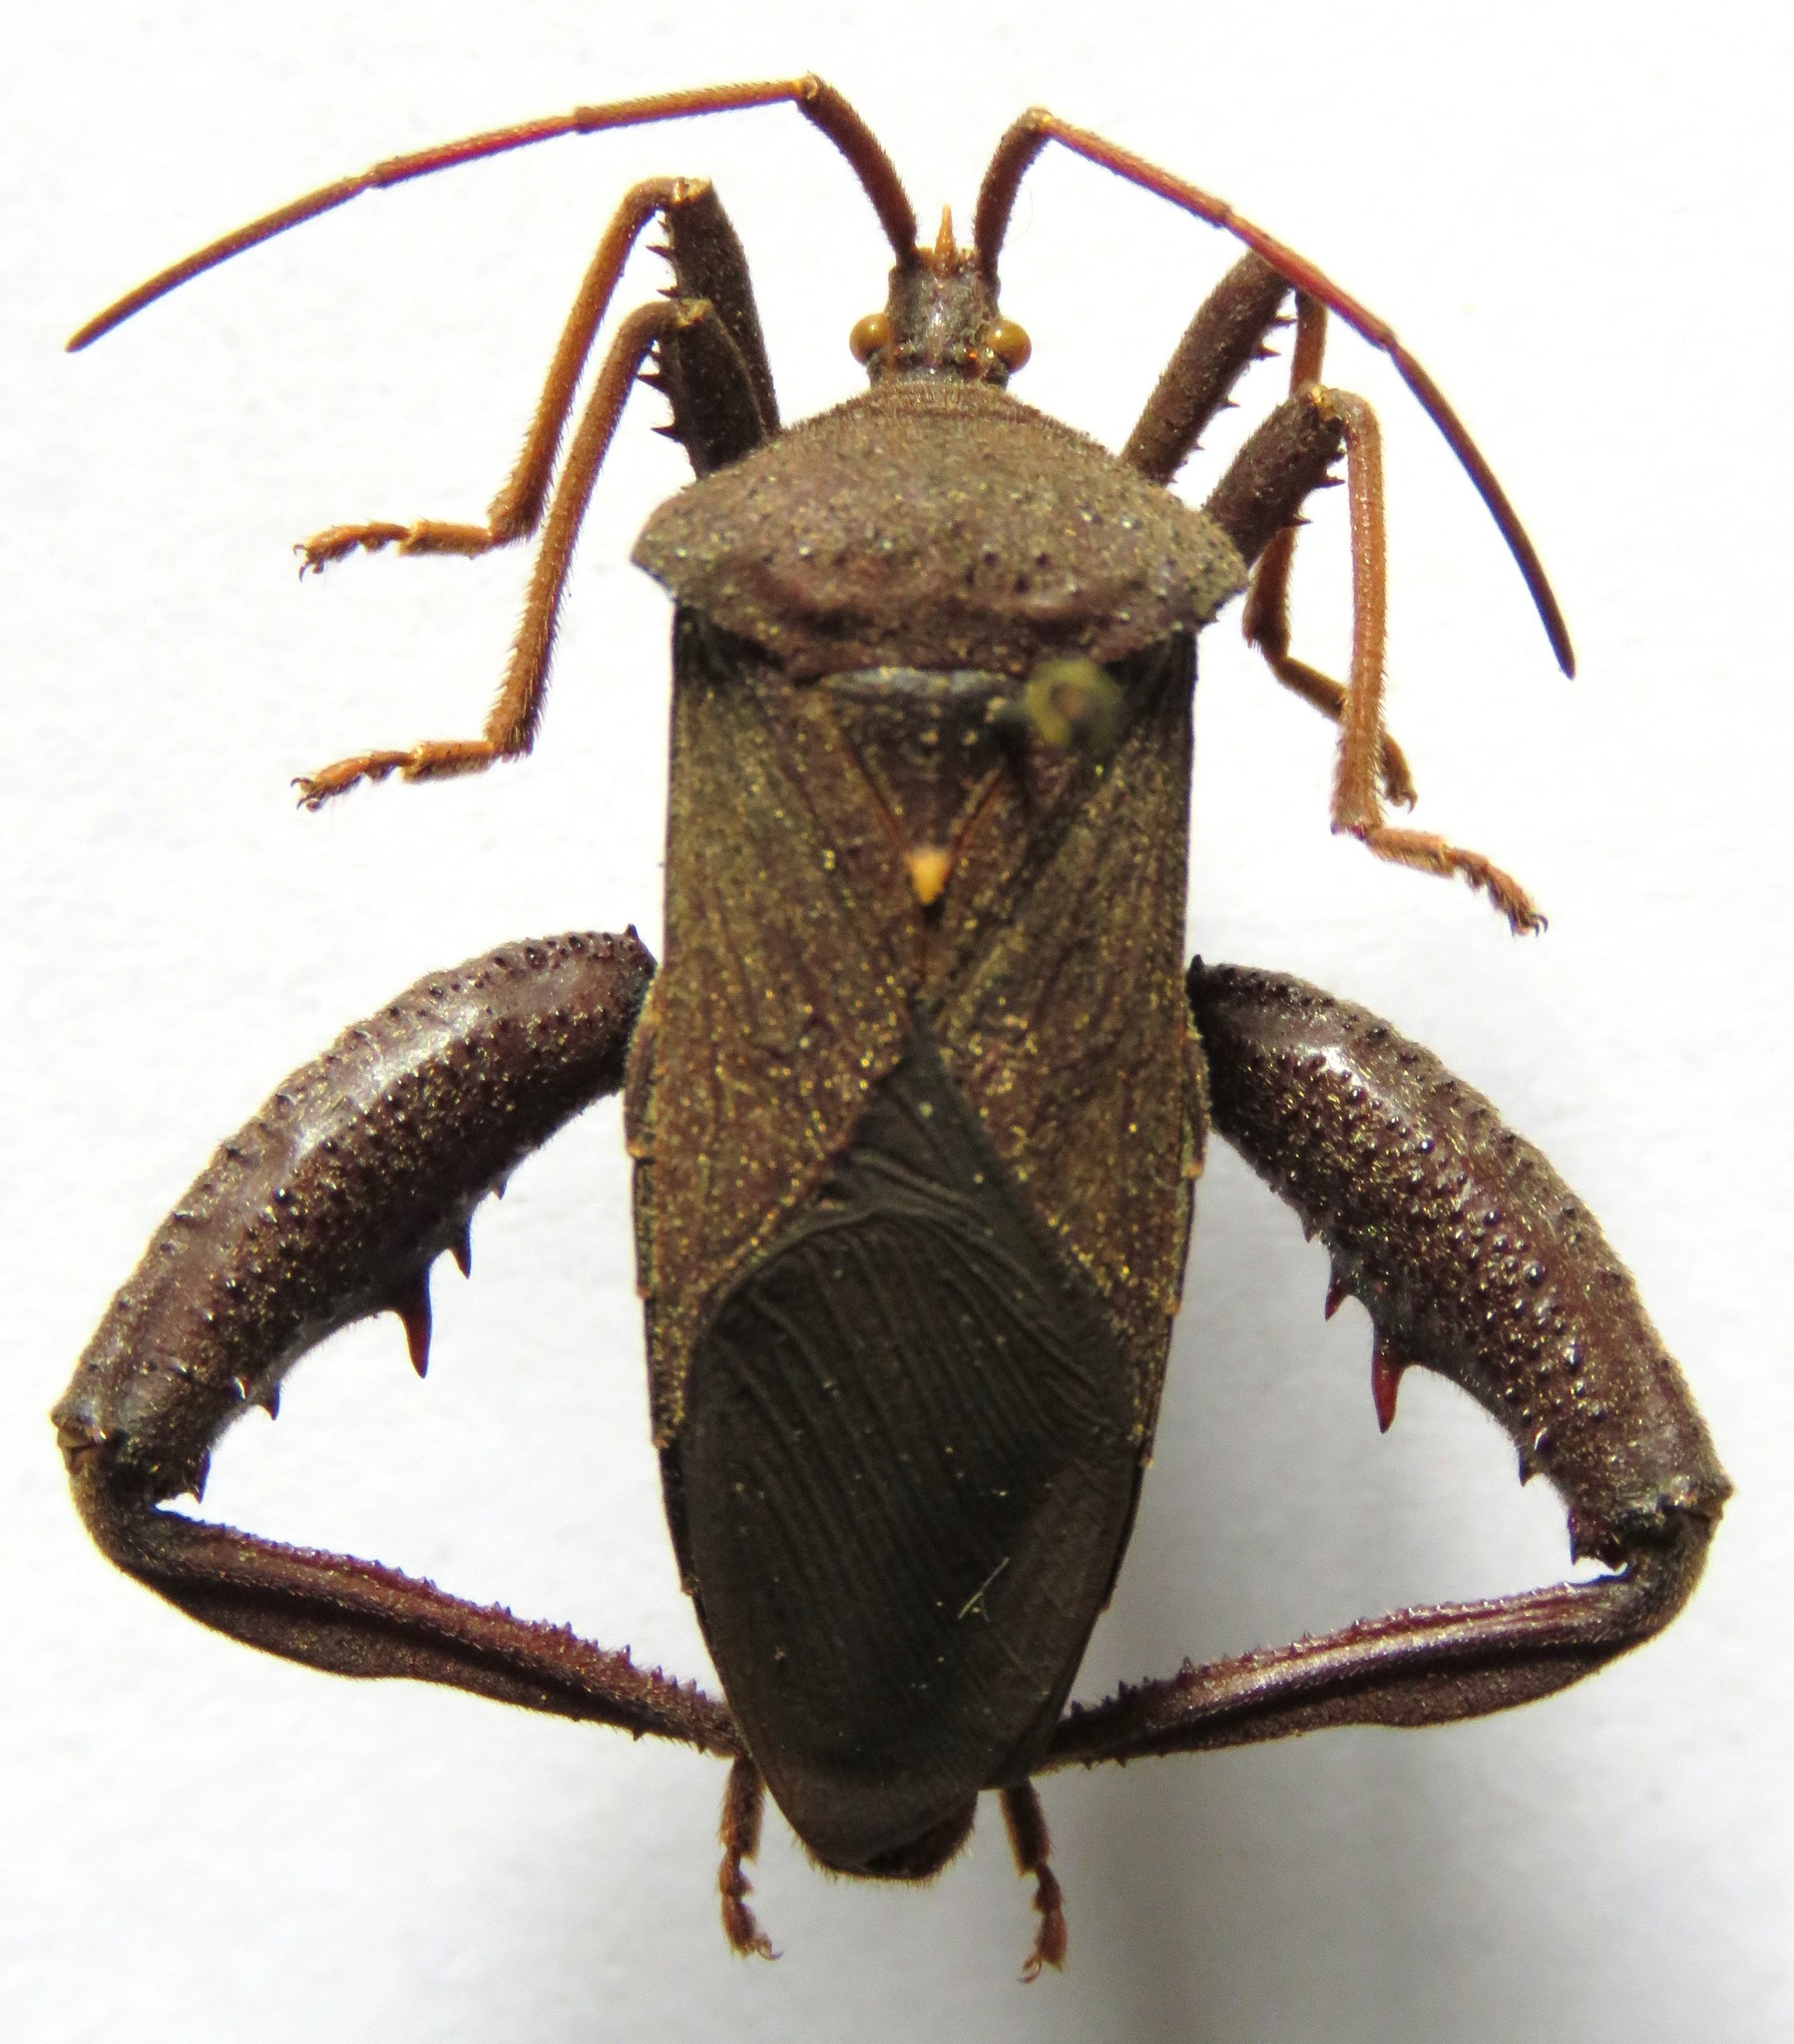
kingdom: Animalia
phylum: Arthropoda
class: Insecta
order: Hemiptera
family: Coreidae
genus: Acanthocephala
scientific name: Acanthocephala femorata
